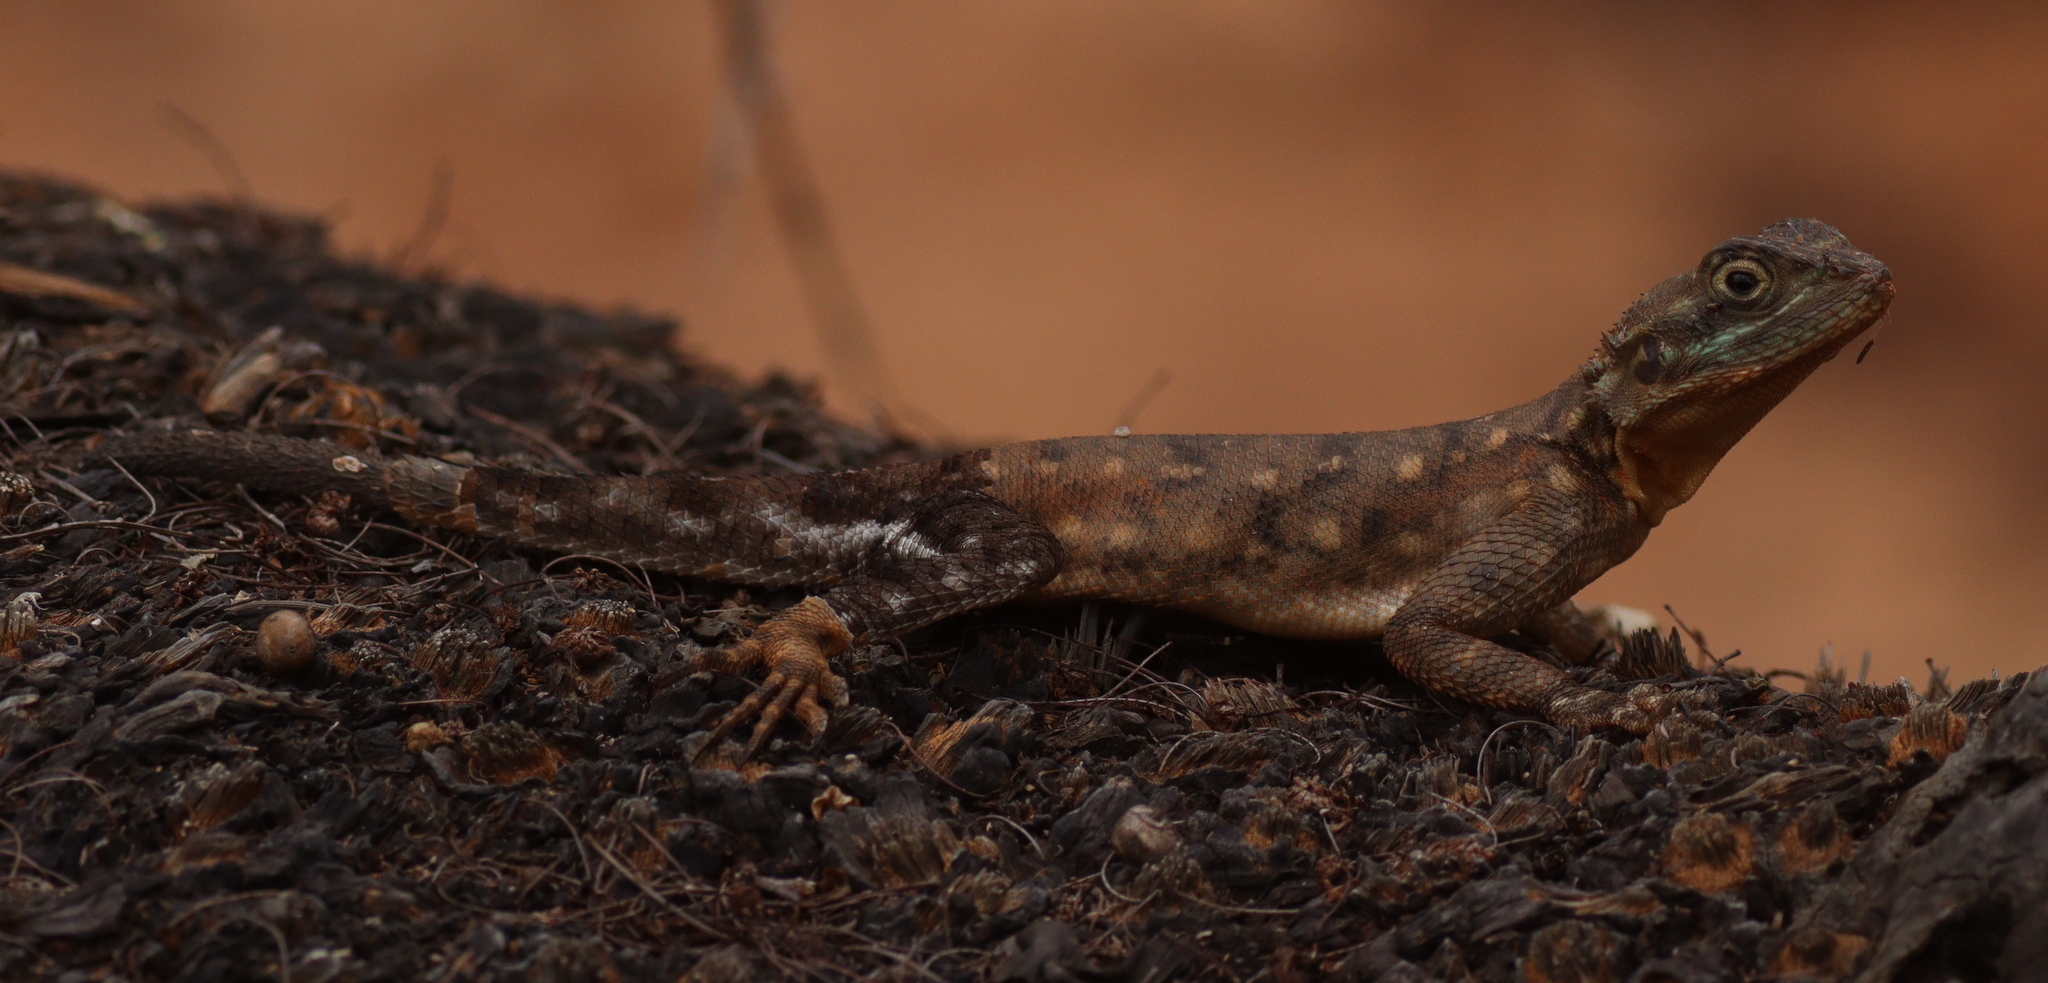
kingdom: Animalia
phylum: Chordata
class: Squamata
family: Agamidae
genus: Agama
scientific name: Agama lionotus
